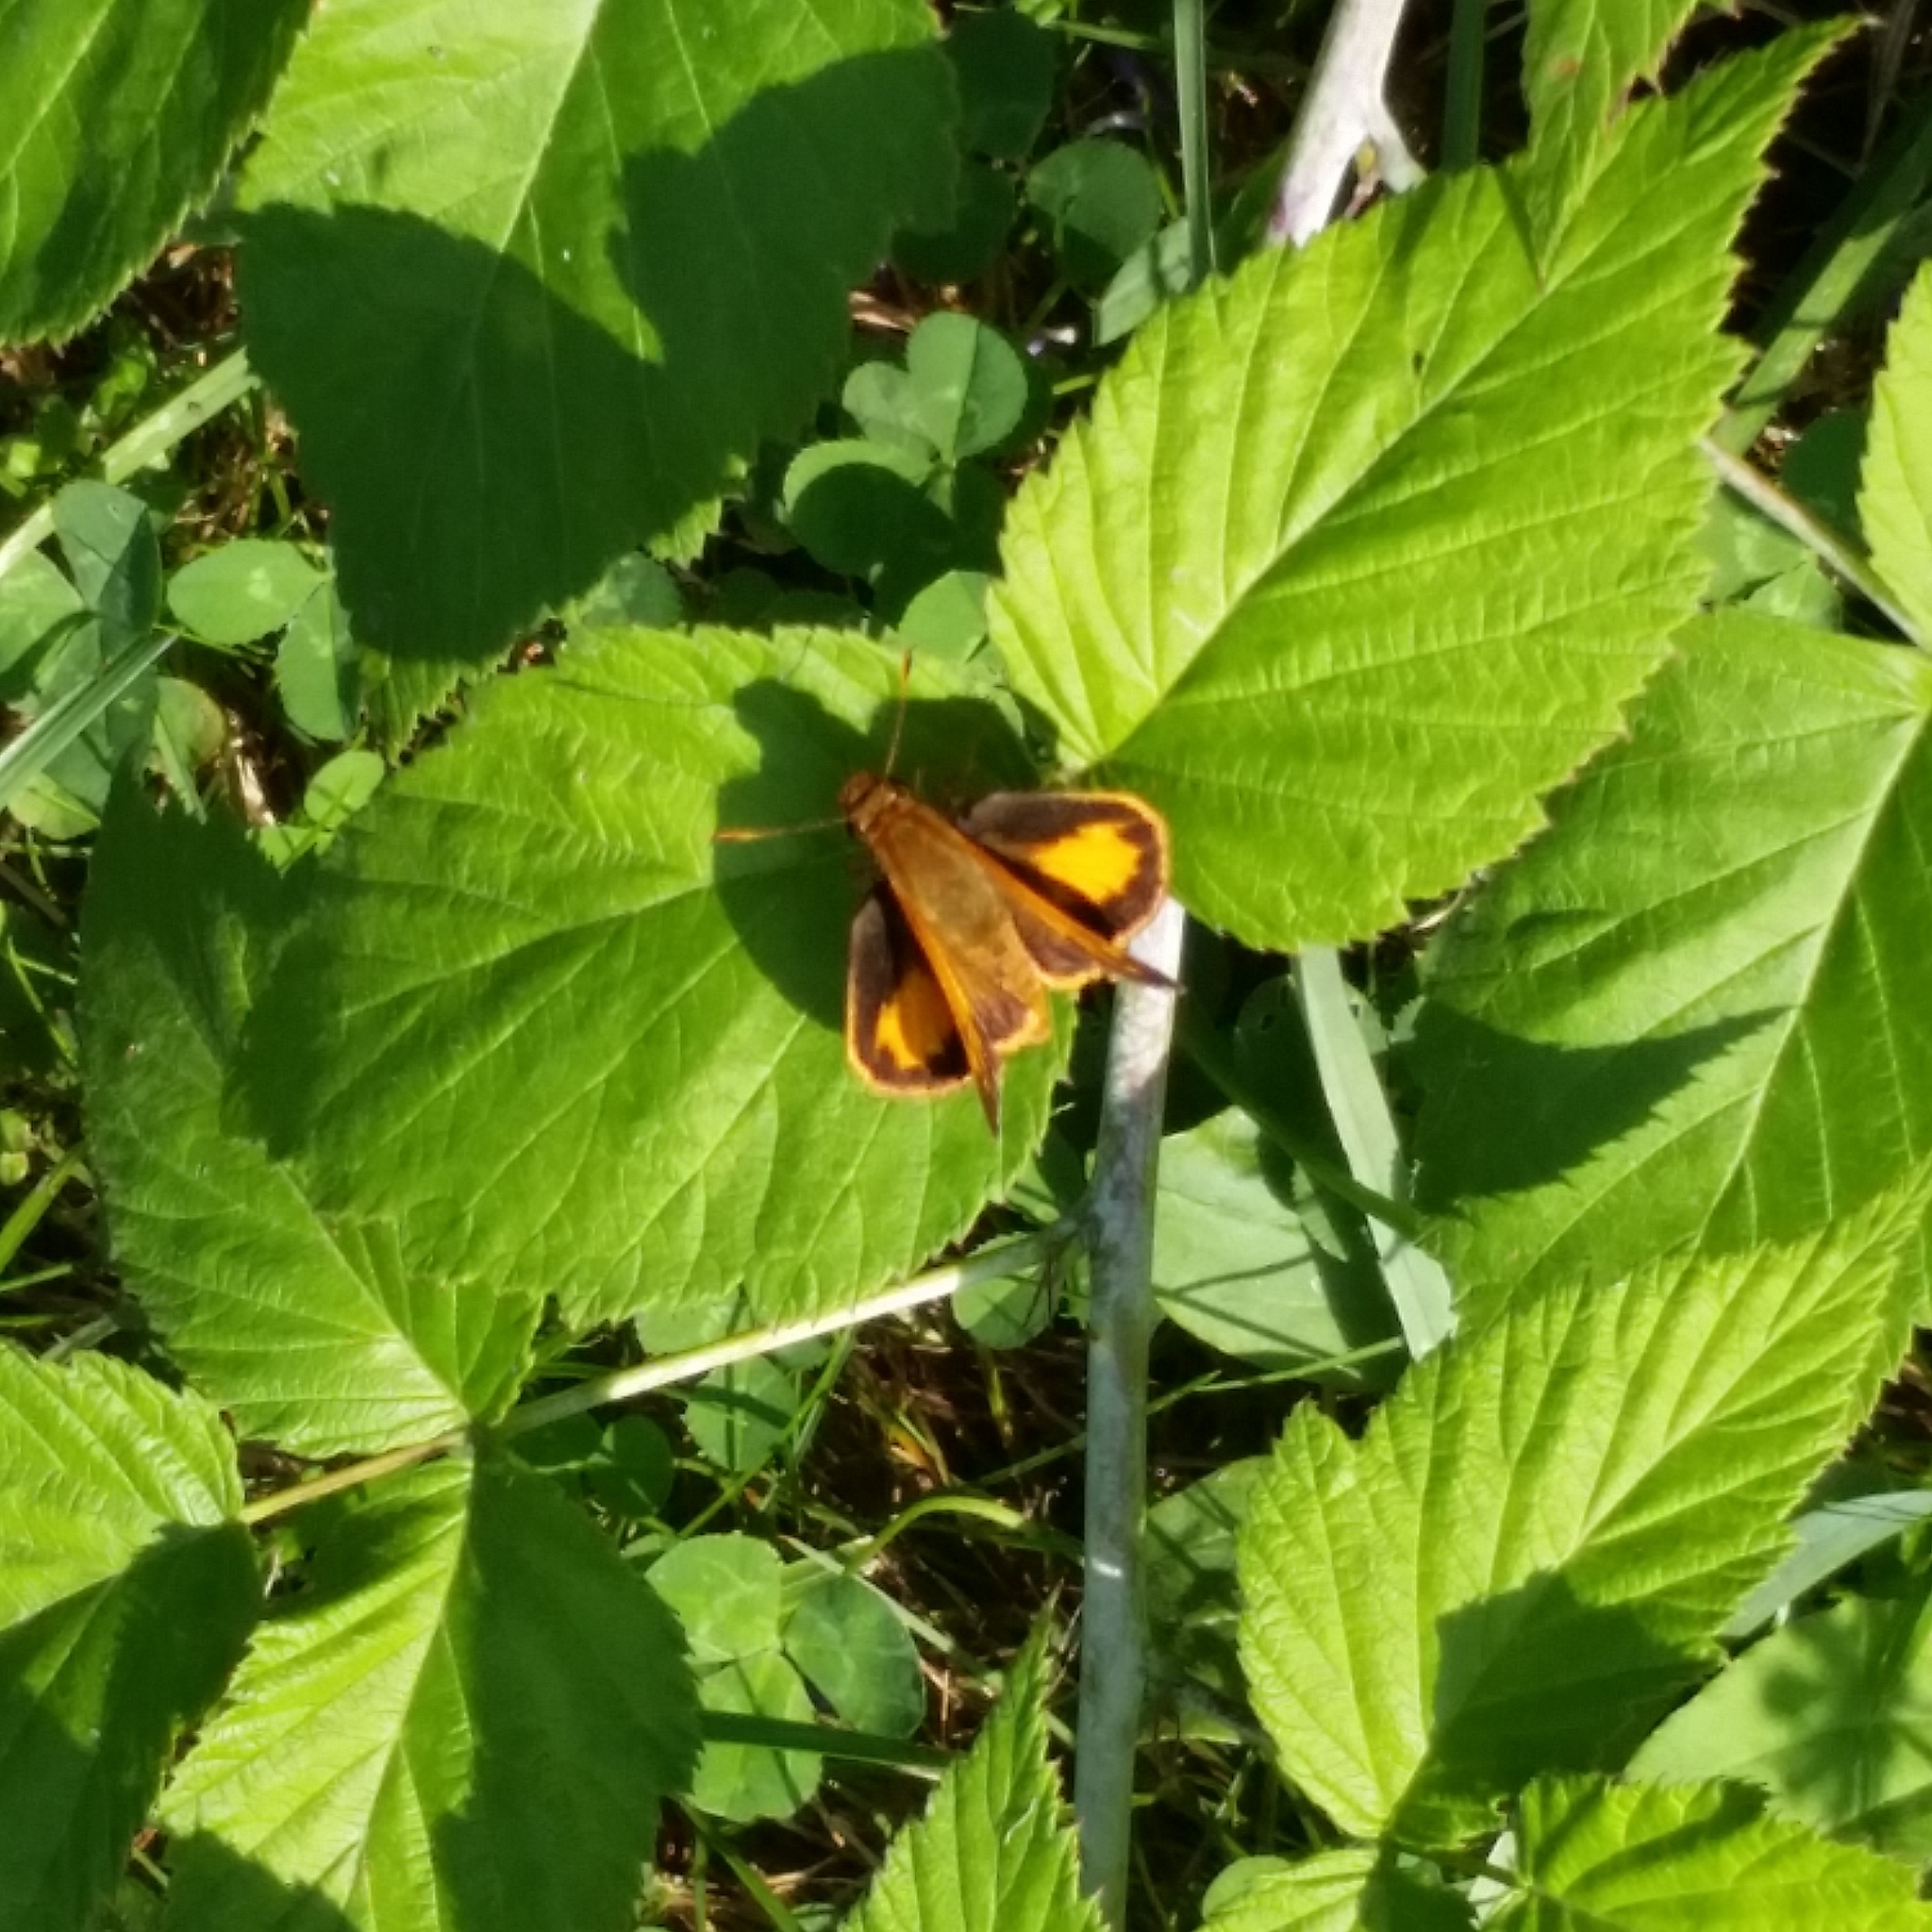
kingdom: Animalia
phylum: Arthropoda
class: Insecta
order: Lepidoptera
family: Hesperiidae
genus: Lon
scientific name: Lon zabulon
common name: Zabulon skipper
